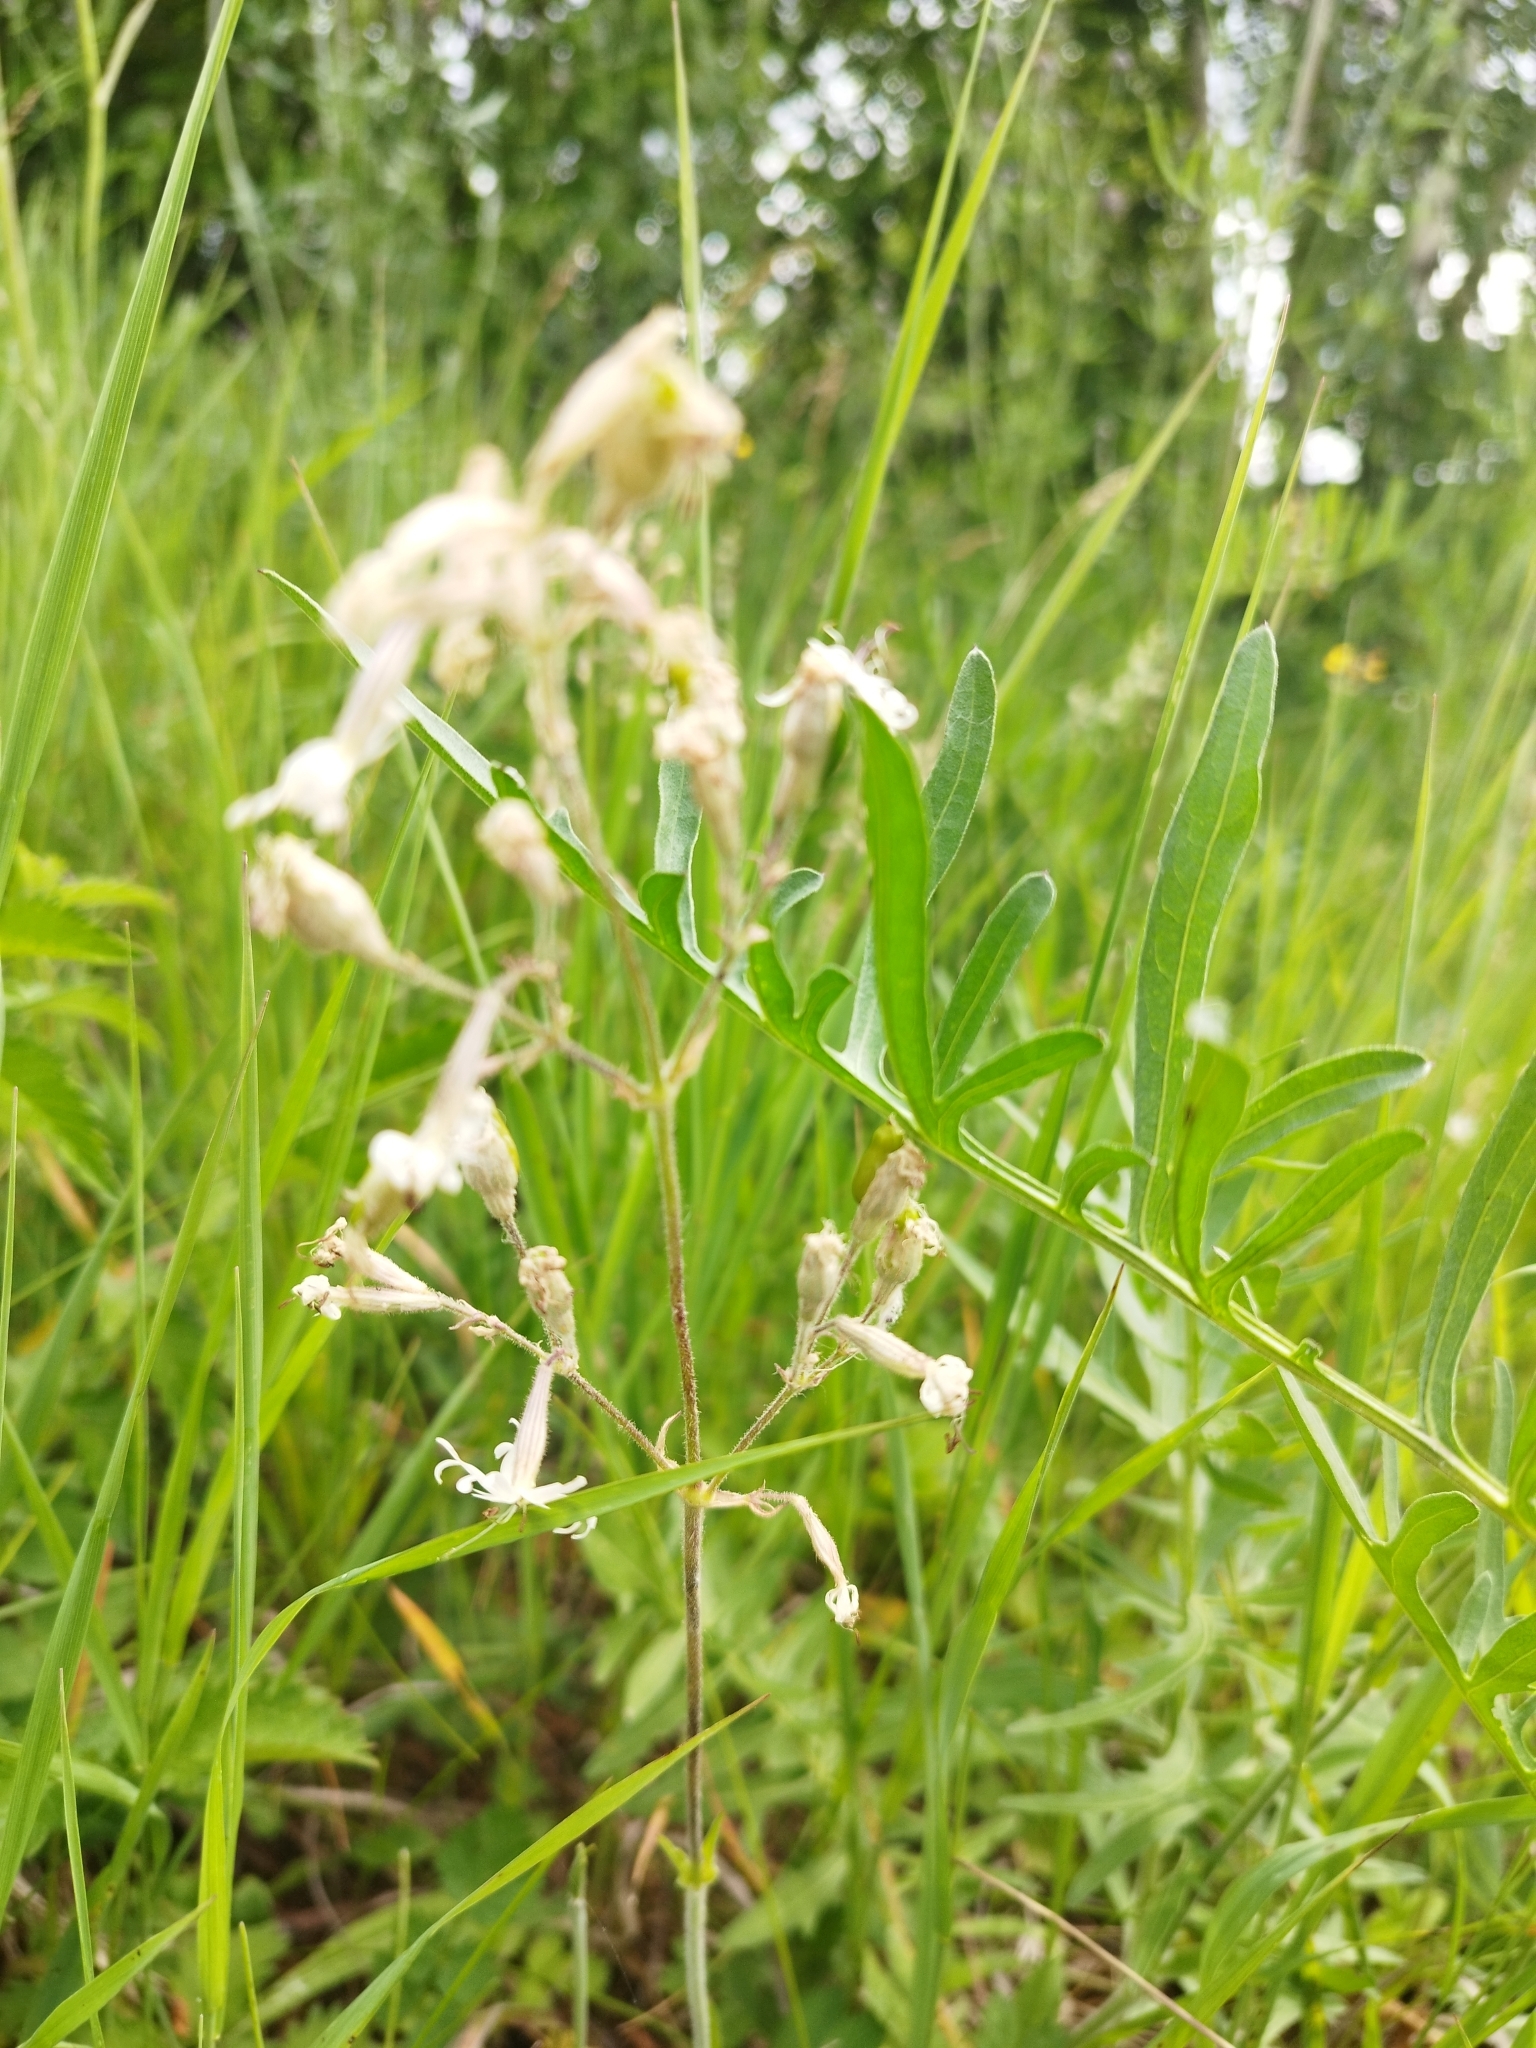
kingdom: Plantae
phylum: Tracheophyta
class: Magnoliopsida
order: Caryophyllales
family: Caryophyllaceae
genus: Silene
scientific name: Silene nutans
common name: Nottingham catchfly
